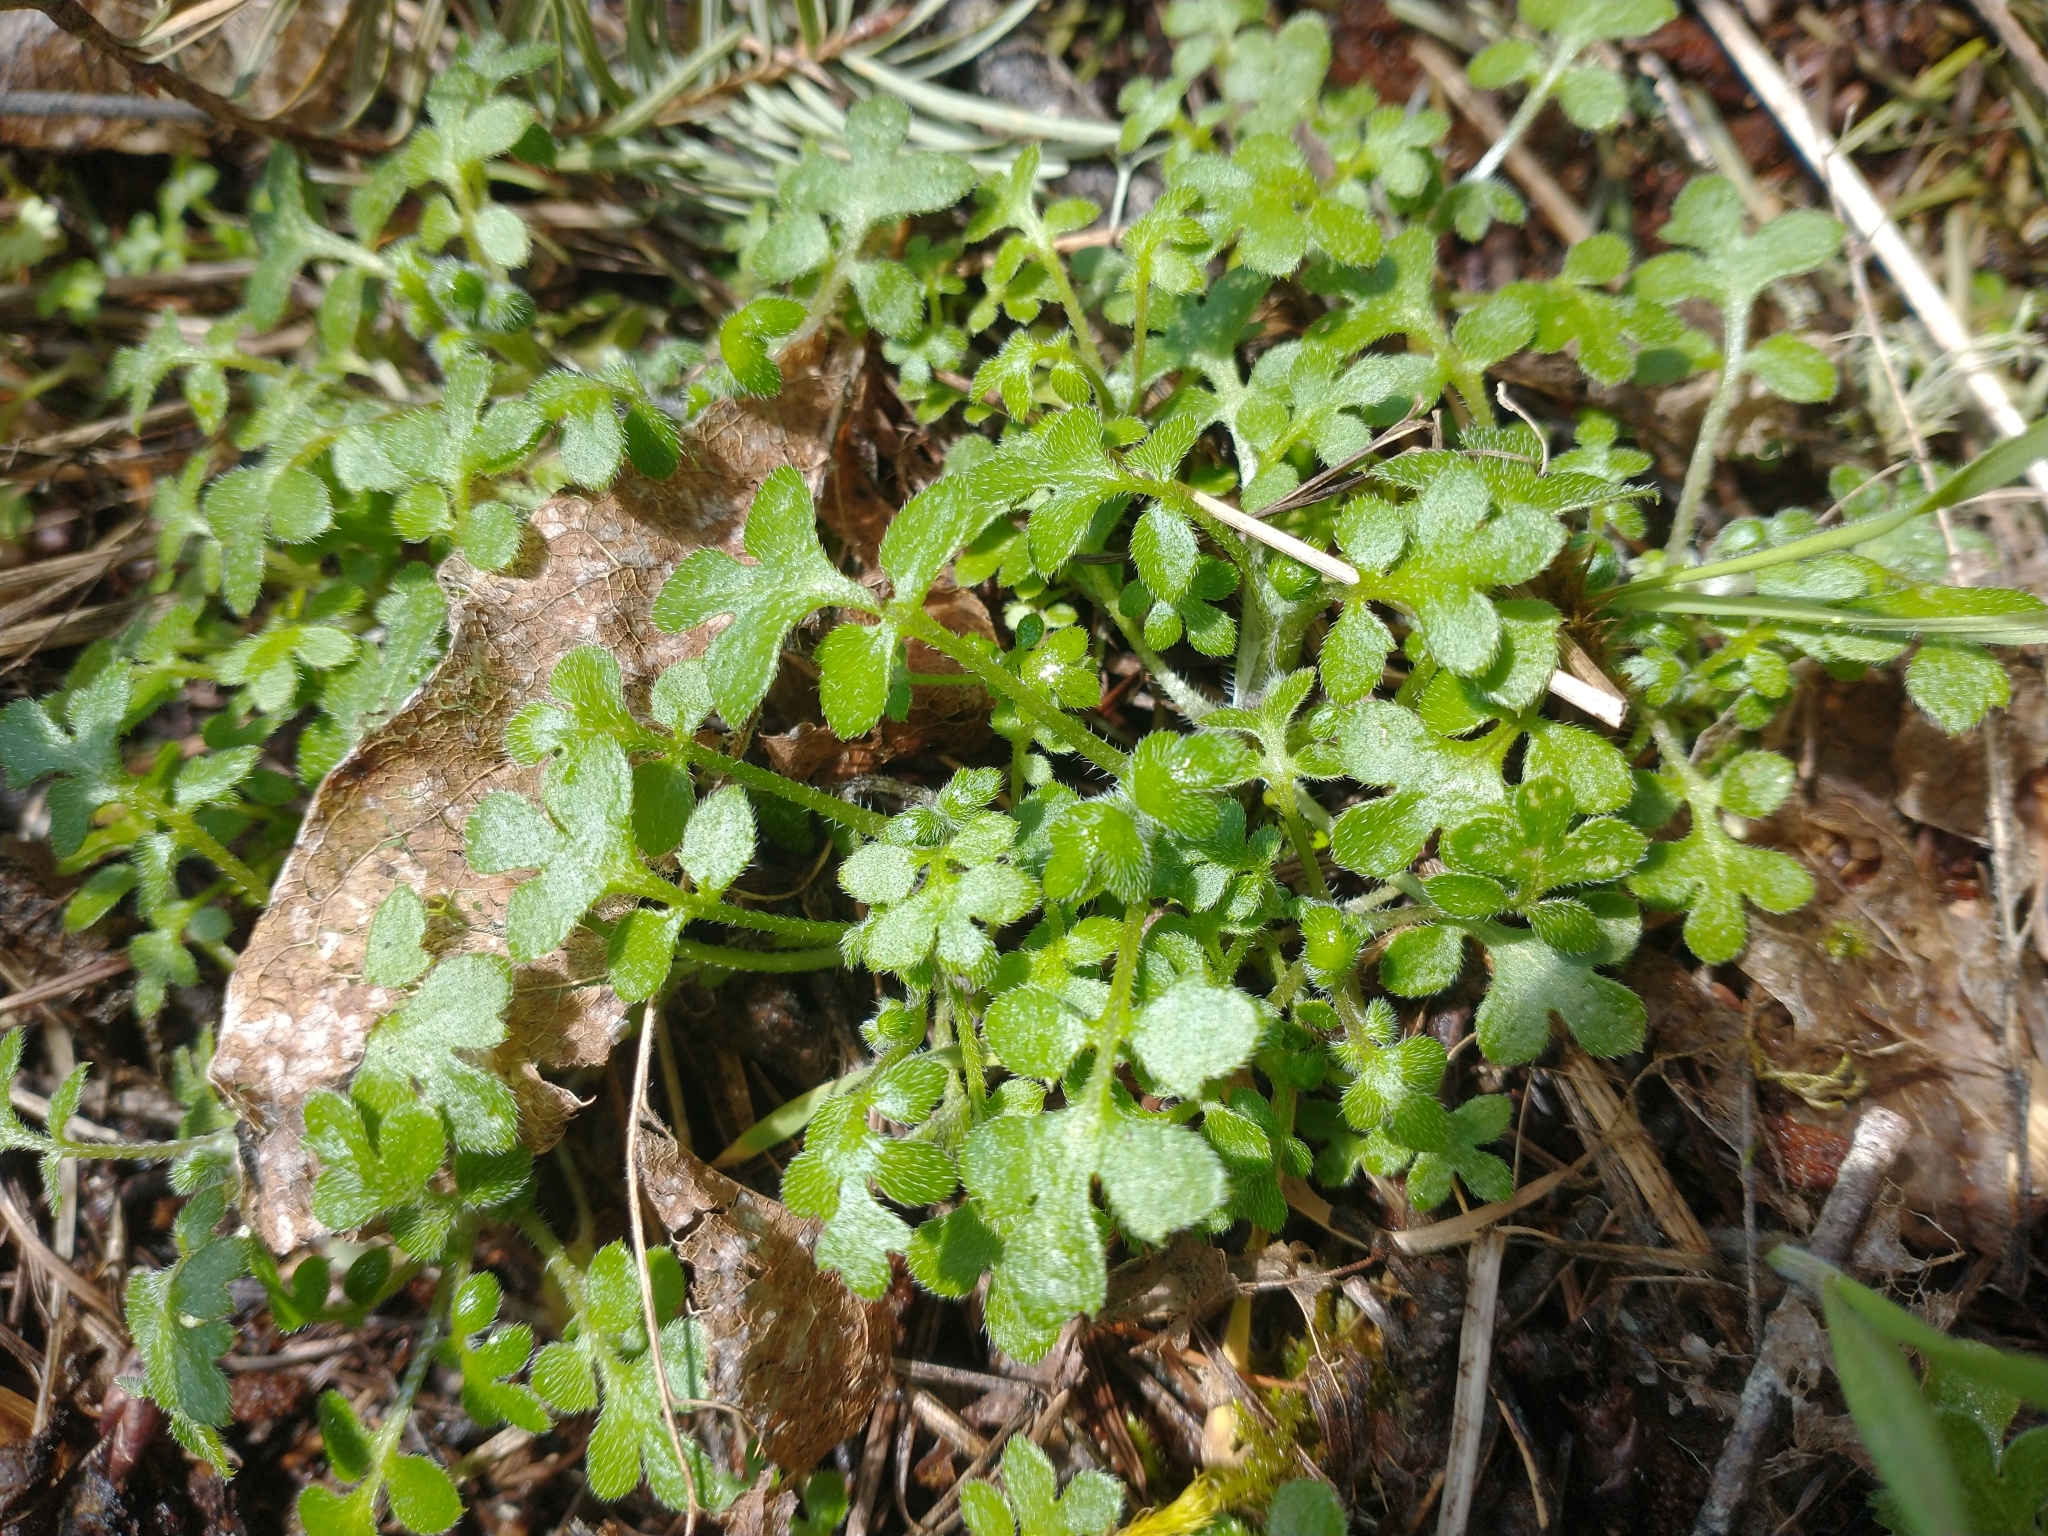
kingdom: Plantae
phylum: Tracheophyta
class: Magnoliopsida
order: Boraginales
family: Hydrophyllaceae
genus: Nemophila
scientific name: Nemophila parviflora
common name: Small-flowered baby-blue-eyes
